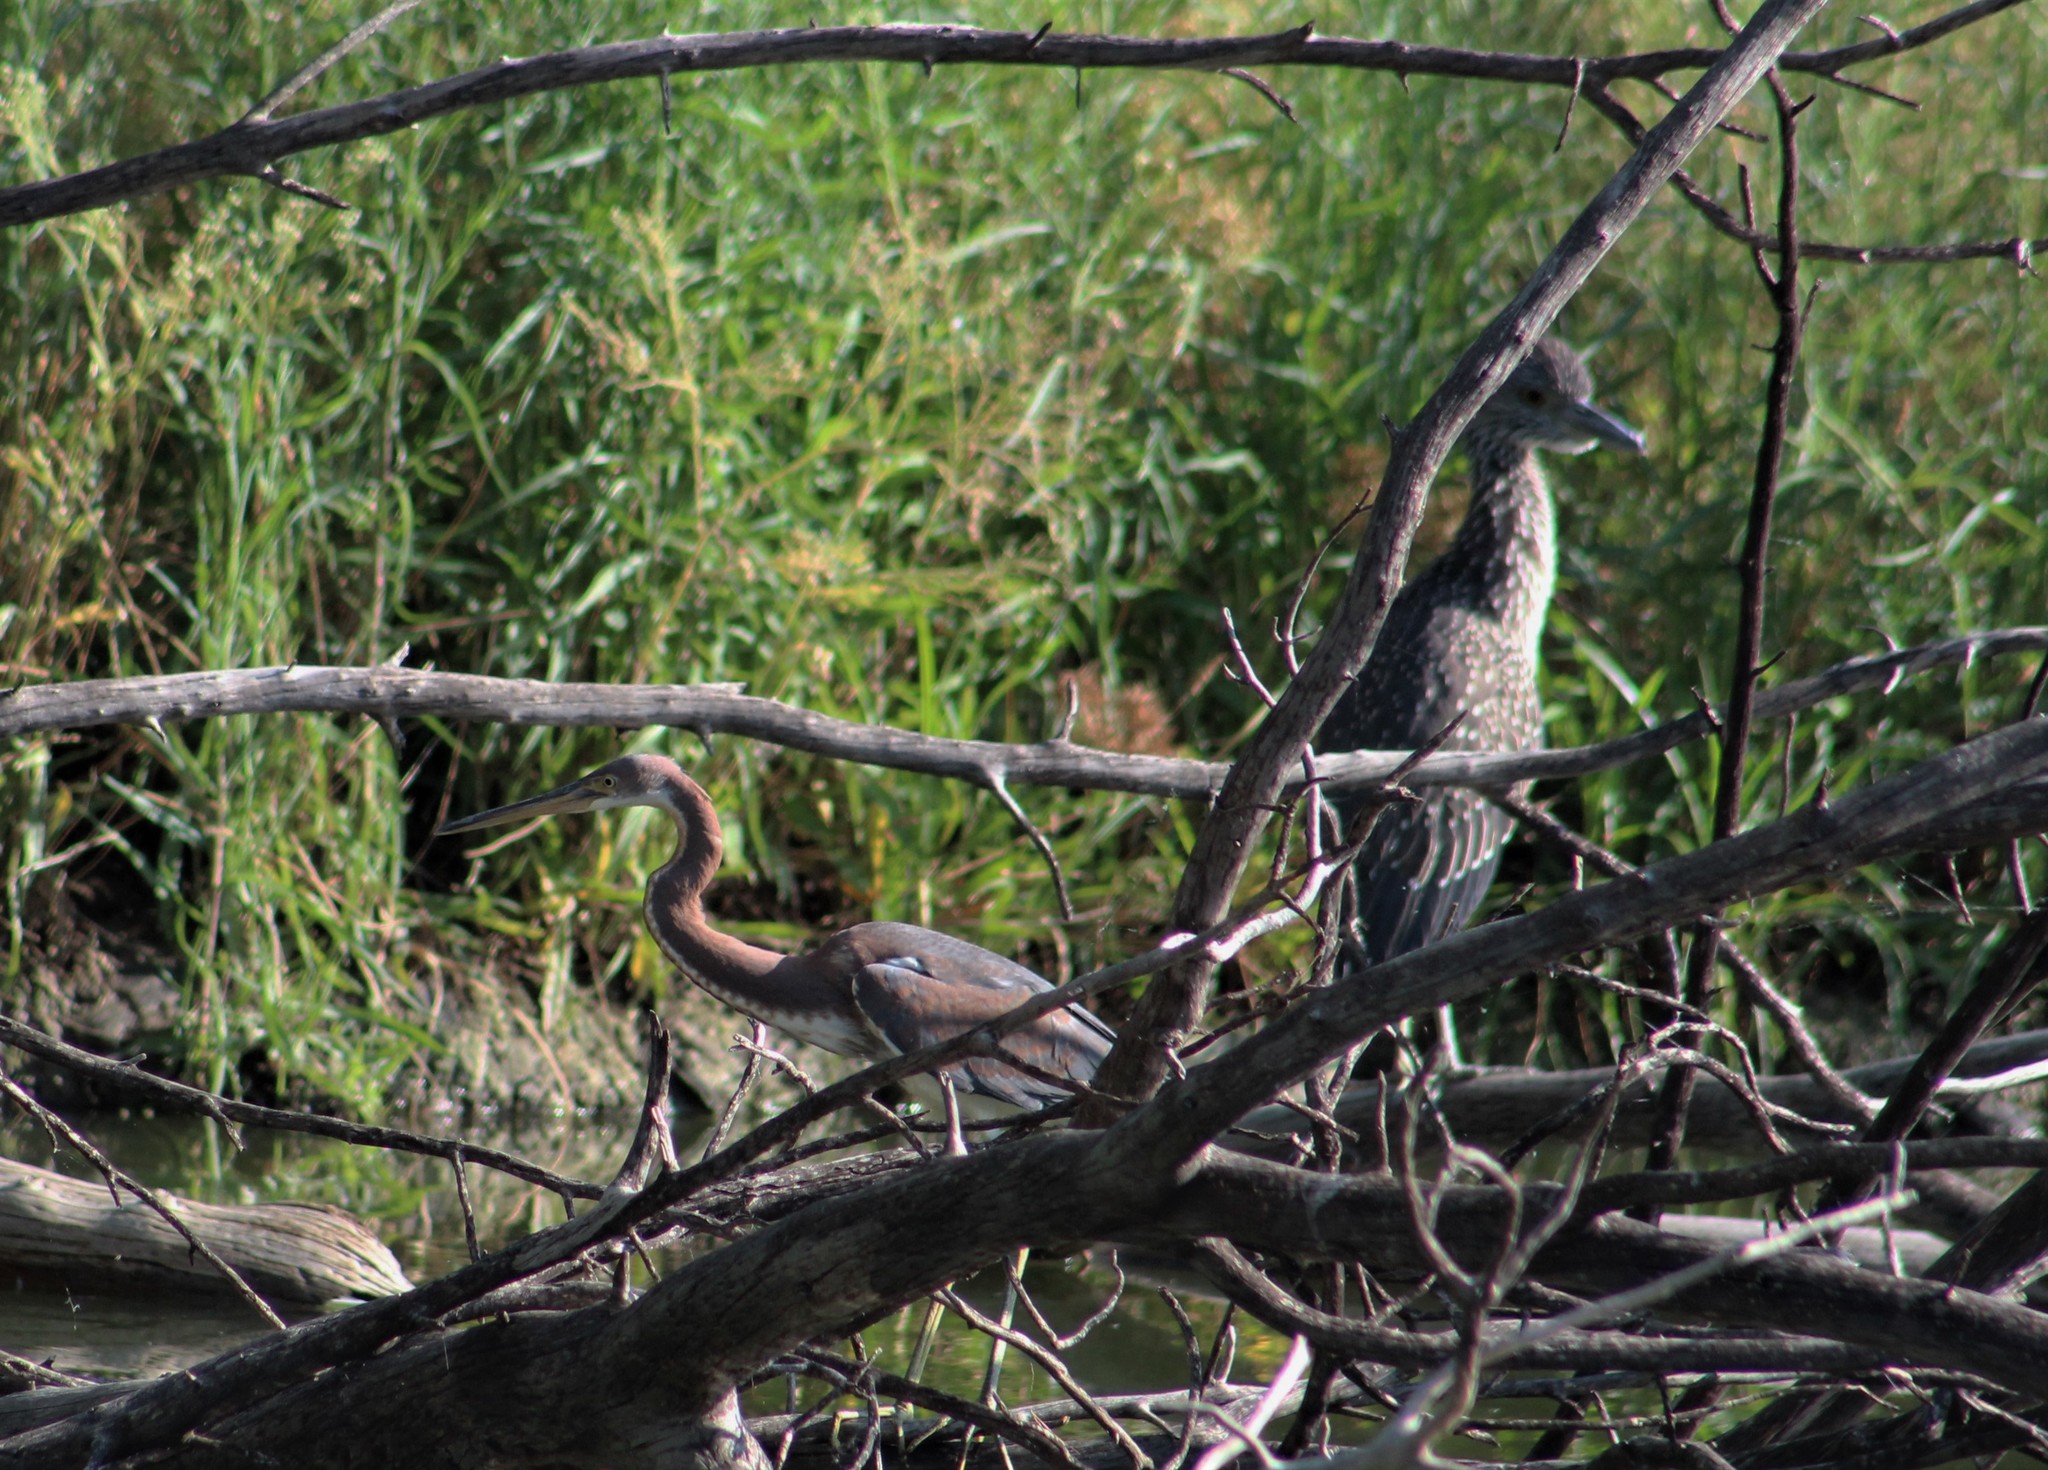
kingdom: Animalia
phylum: Chordata
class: Aves
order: Pelecaniformes
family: Ardeidae
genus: Nyctanassa
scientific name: Nyctanassa violacea
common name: Yellow-crowned night heron
